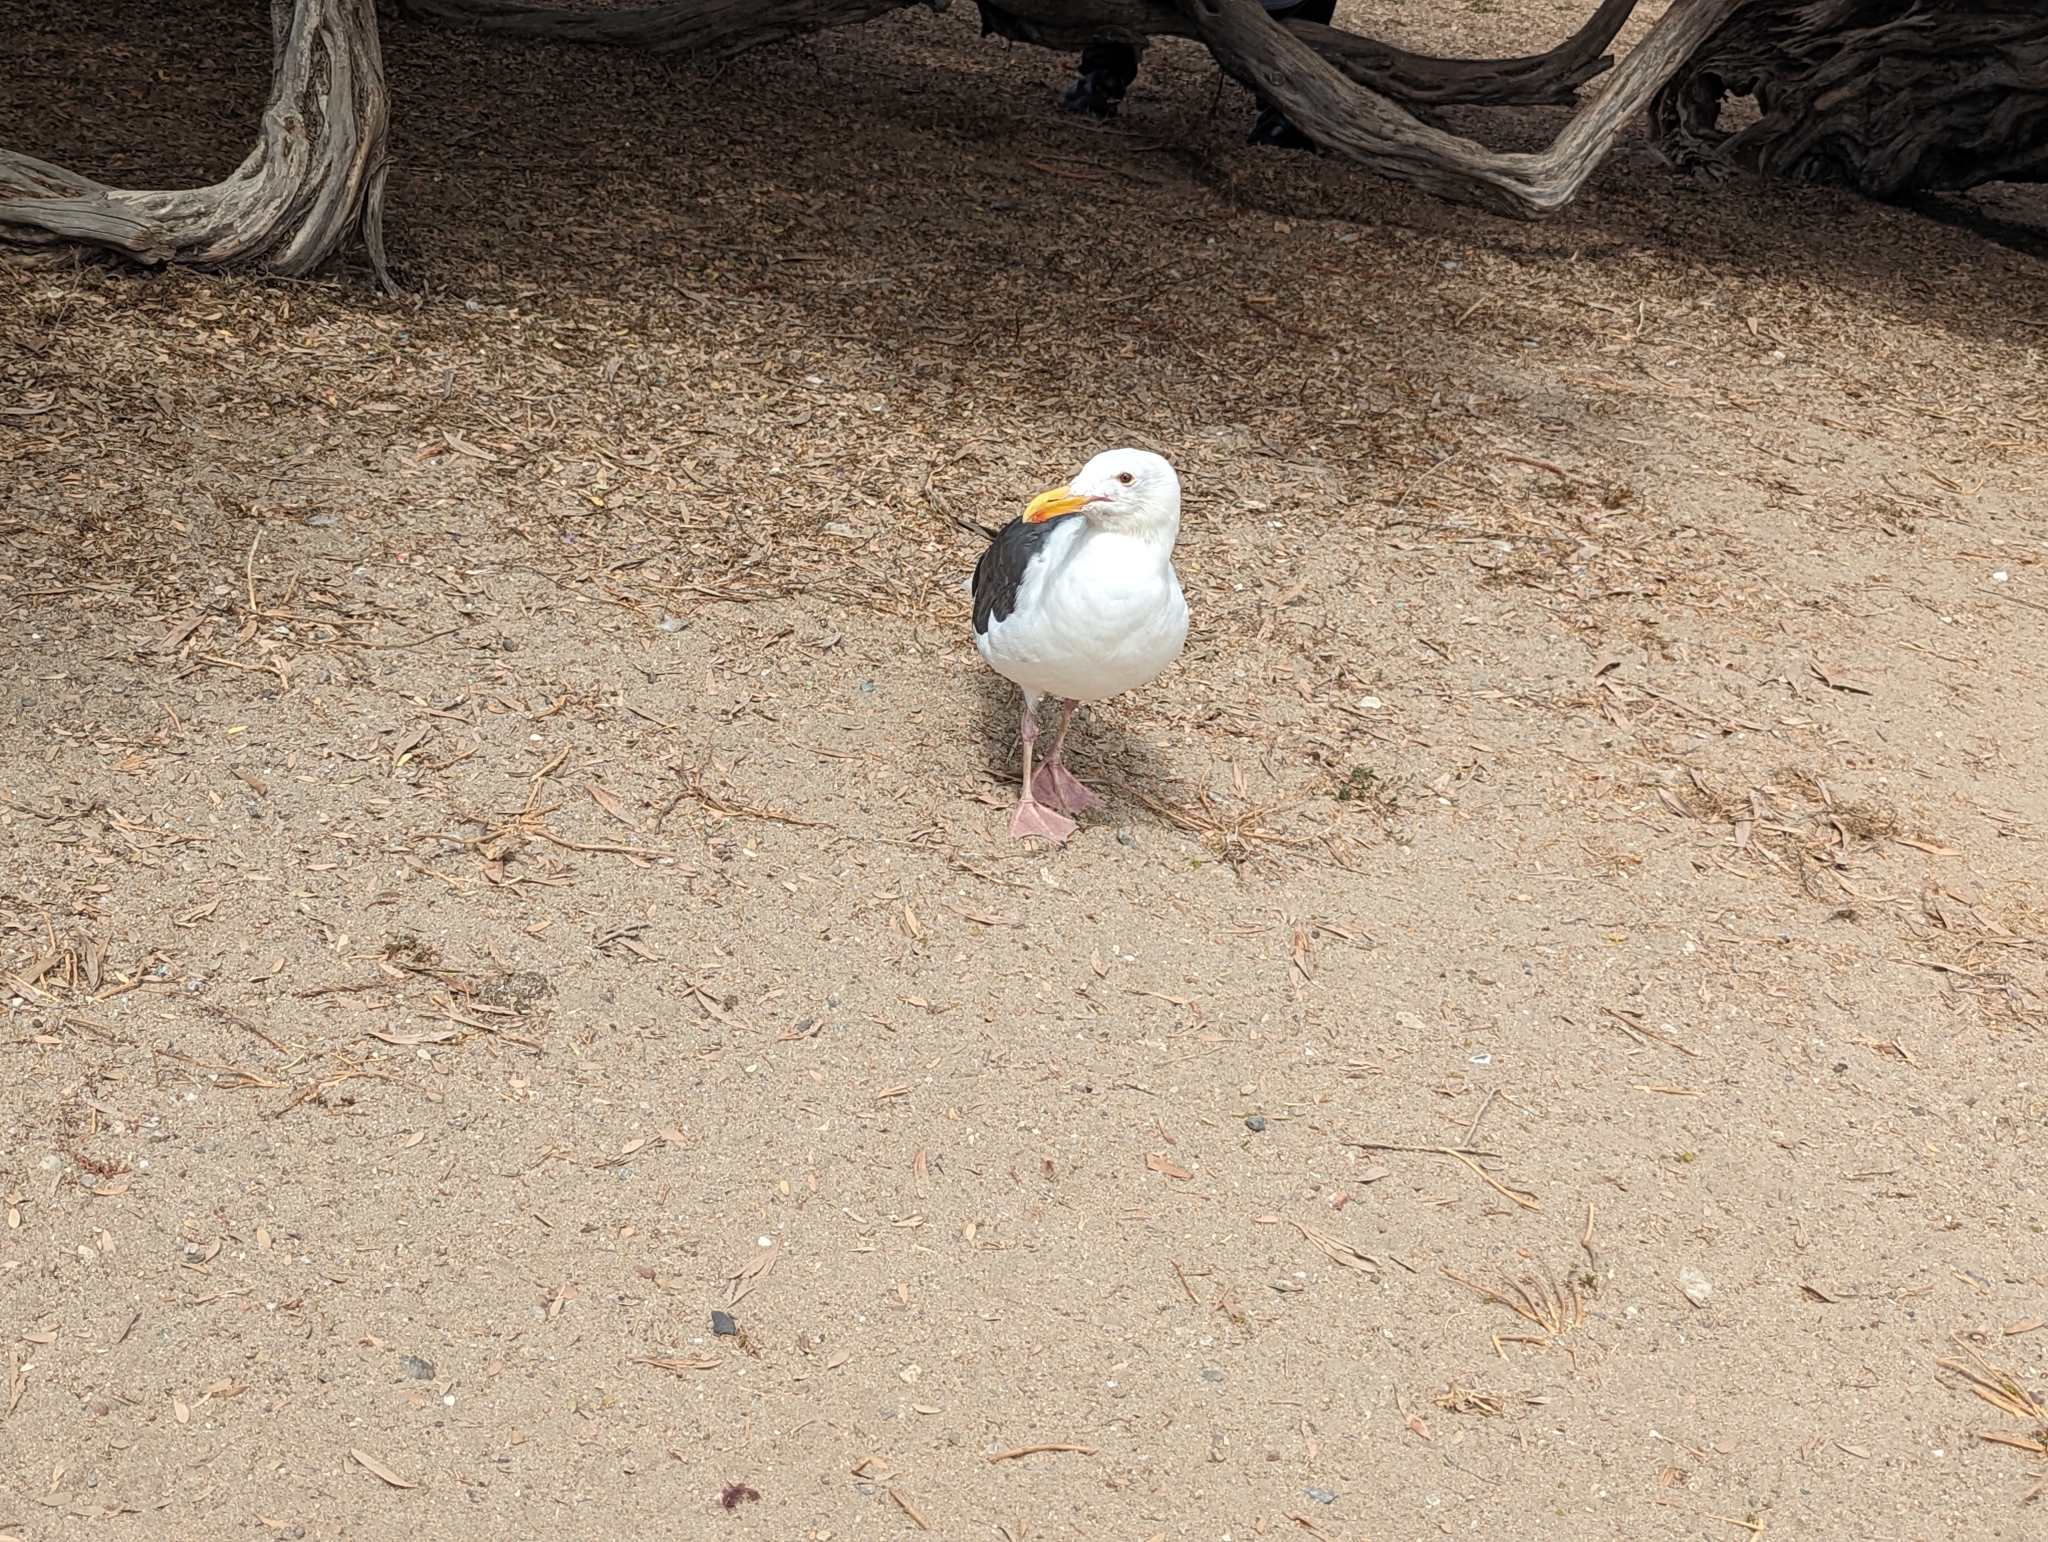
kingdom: Animalia
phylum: Chordata
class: Aves
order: Charadriiformes
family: Laridae
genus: Larus
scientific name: Larus occidentalis
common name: Western gull
